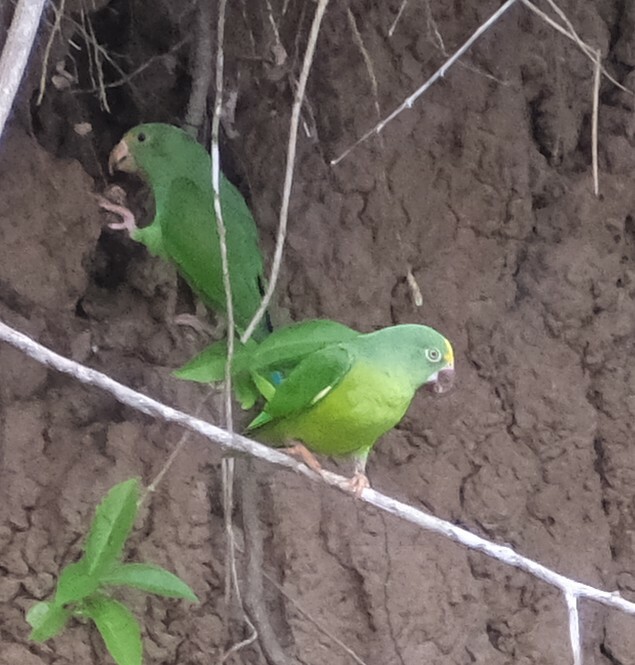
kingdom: Animalia
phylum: Chordata
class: Aves
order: Psittaciformes
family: Psittacidae
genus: Brotogeris
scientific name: Brotogeris sanctithomae
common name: Tui parakeet
